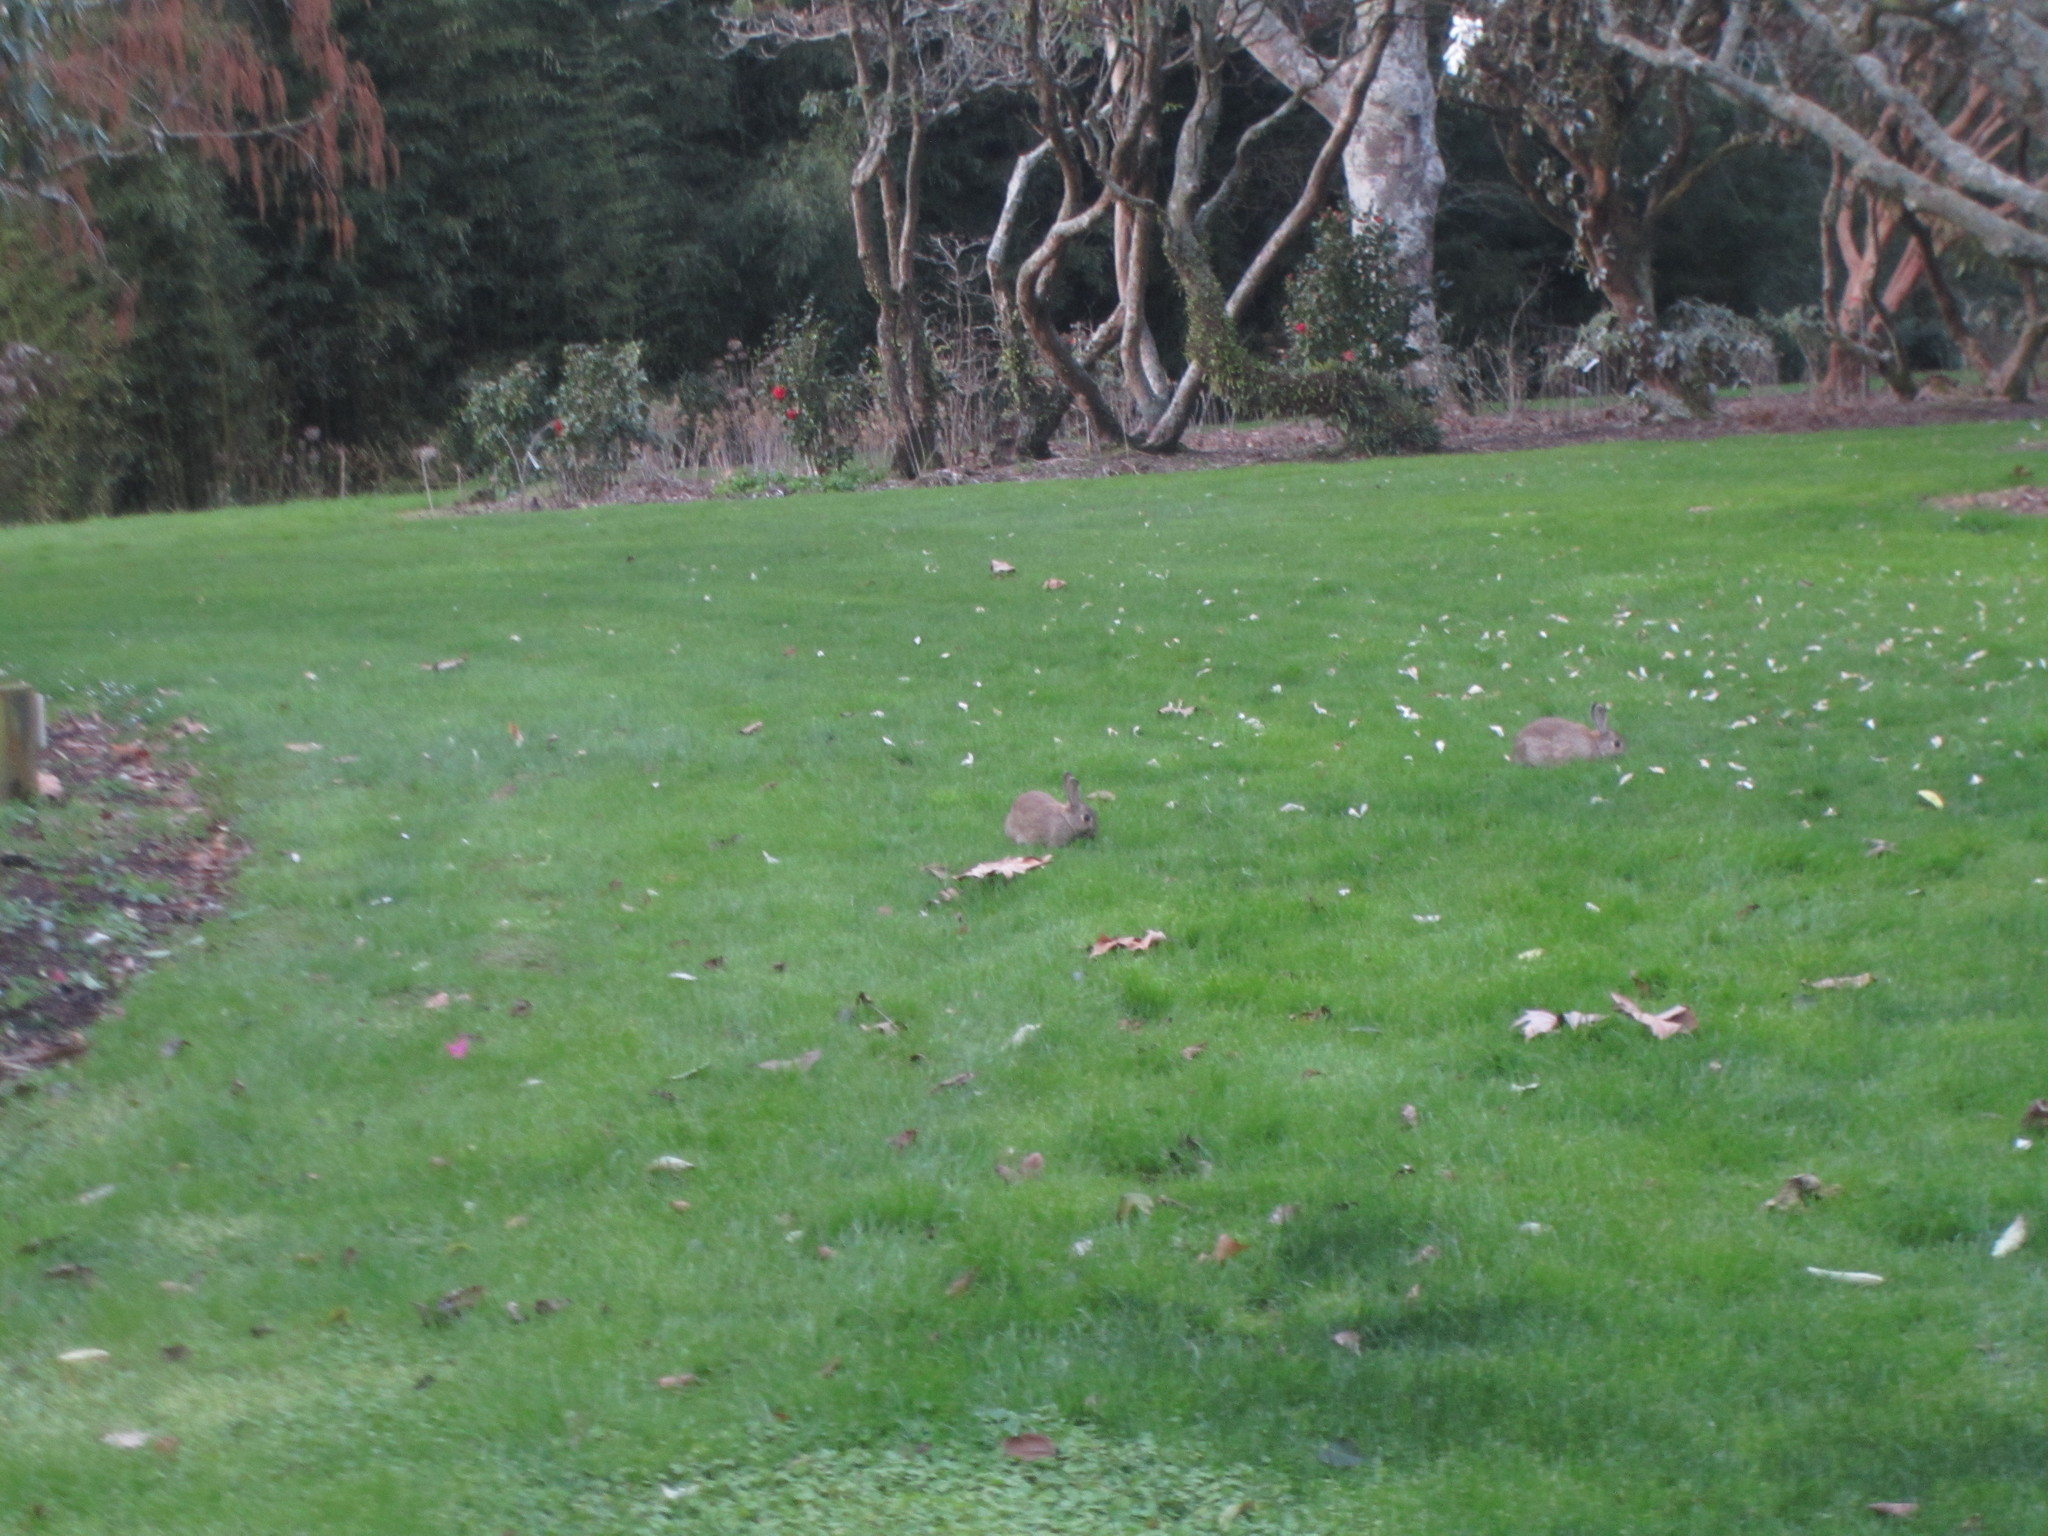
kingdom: Animalia
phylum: Chordata
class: Mammalia
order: Lagomorpha
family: Leporidae
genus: Oryctolagus
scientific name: Oryctolagus cuniculus
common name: European rabbit
